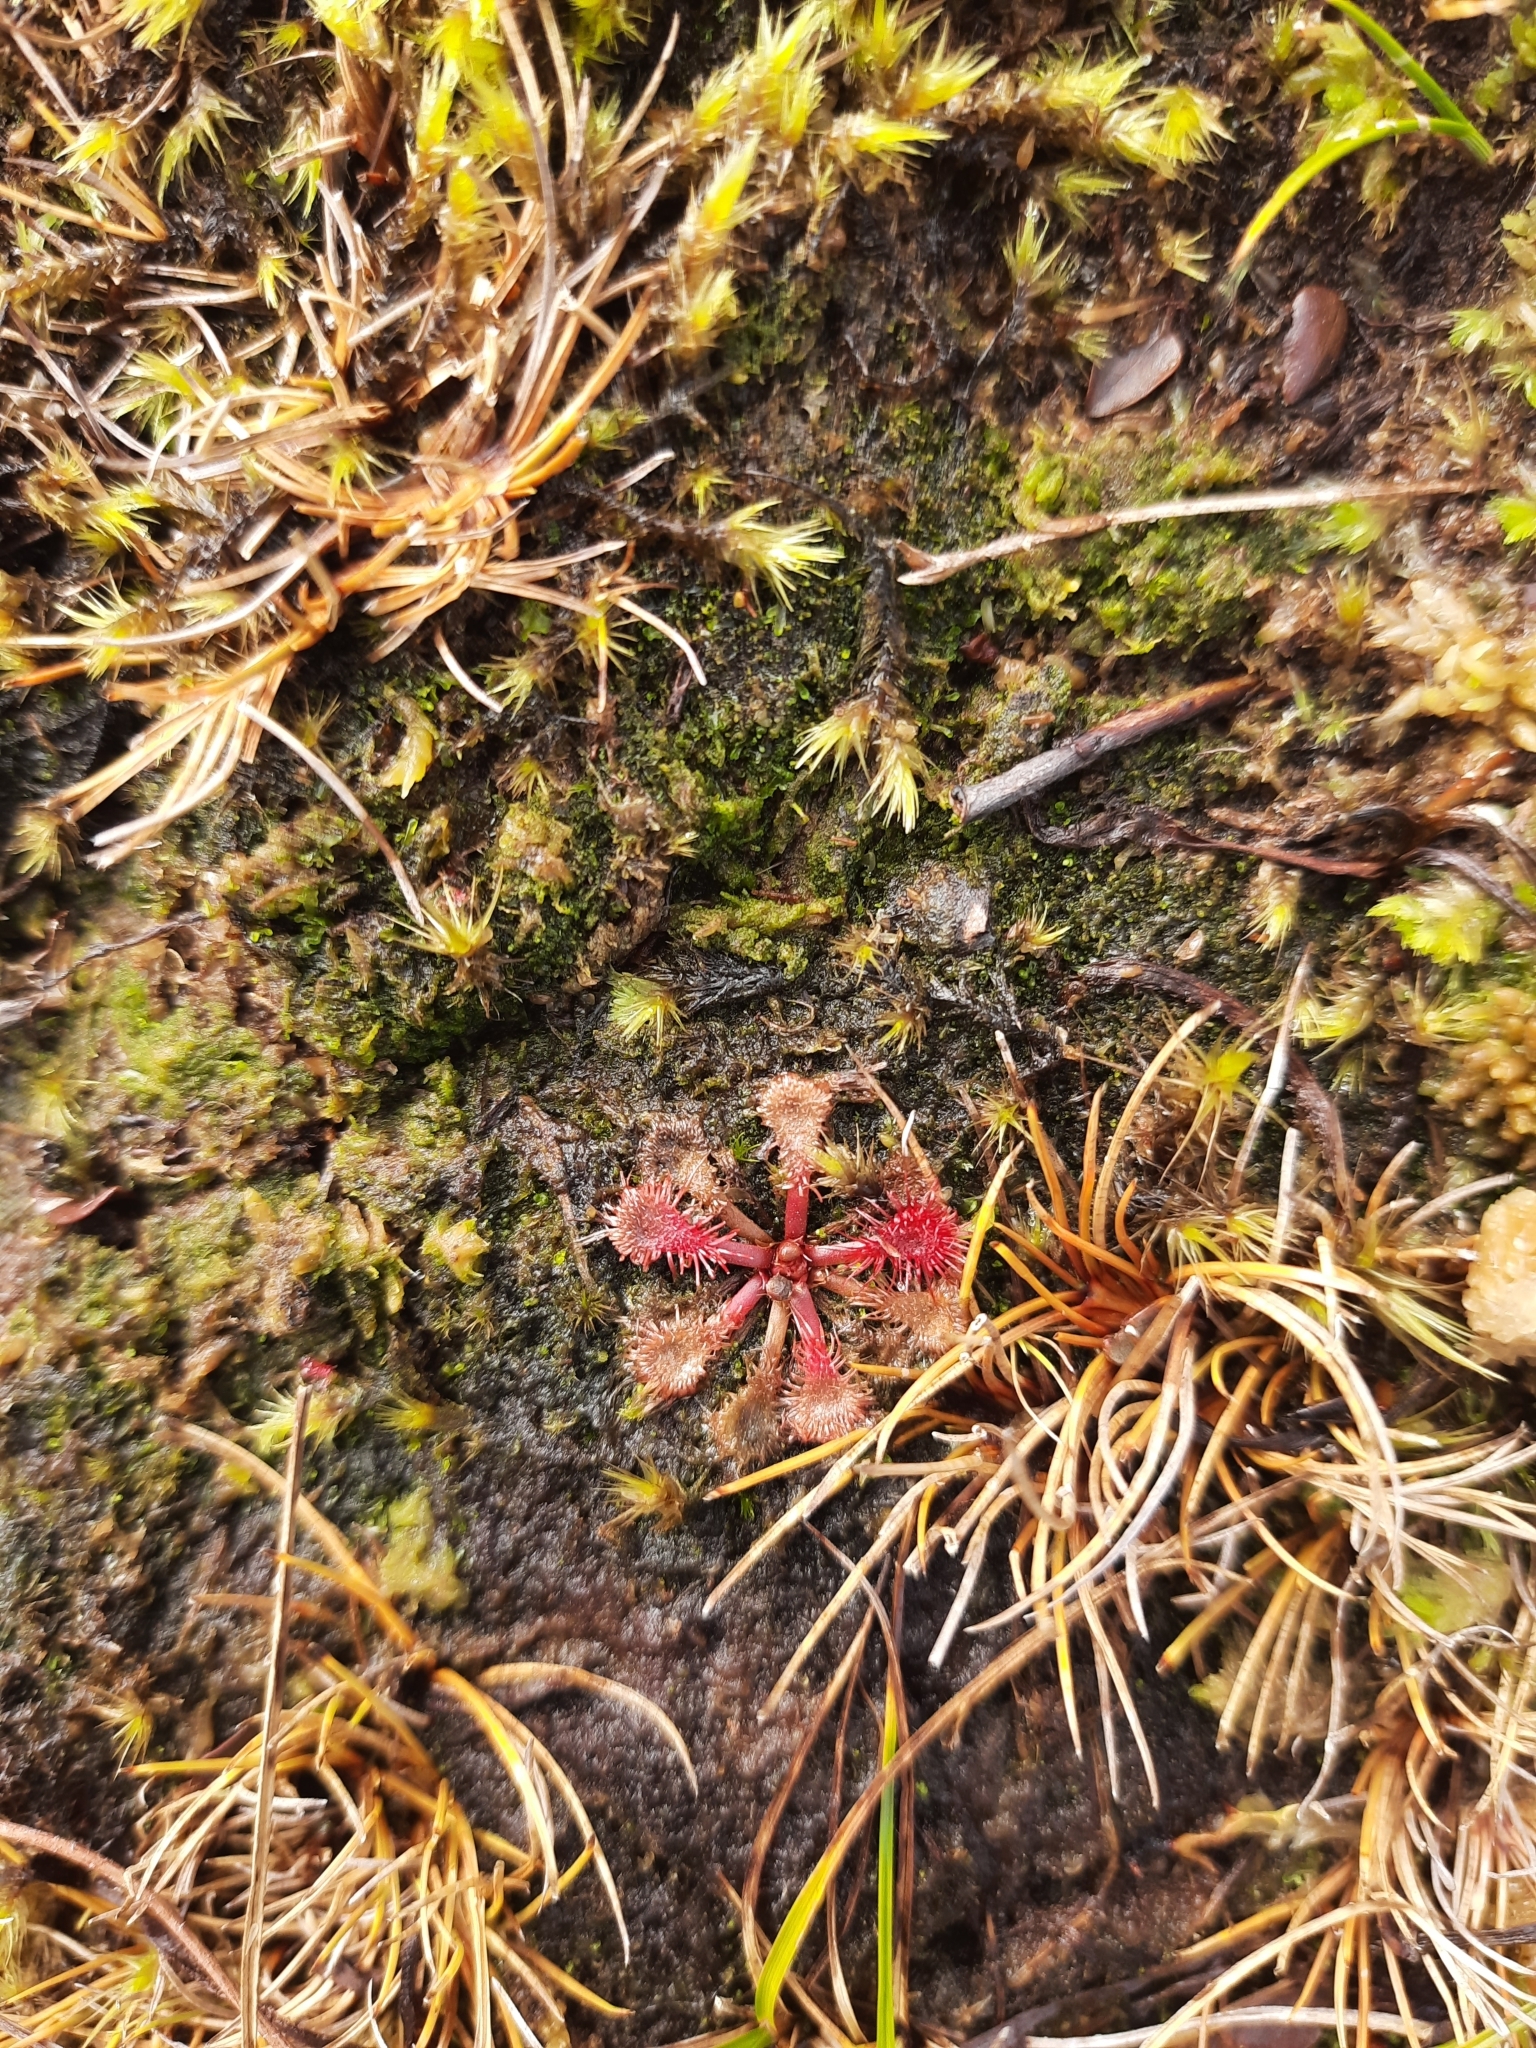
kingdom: Plantae
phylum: Tracheophyta
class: Magnoliopsida
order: Caryophyllales
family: Droseraceae
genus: Drosera
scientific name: Drosera spatulata
